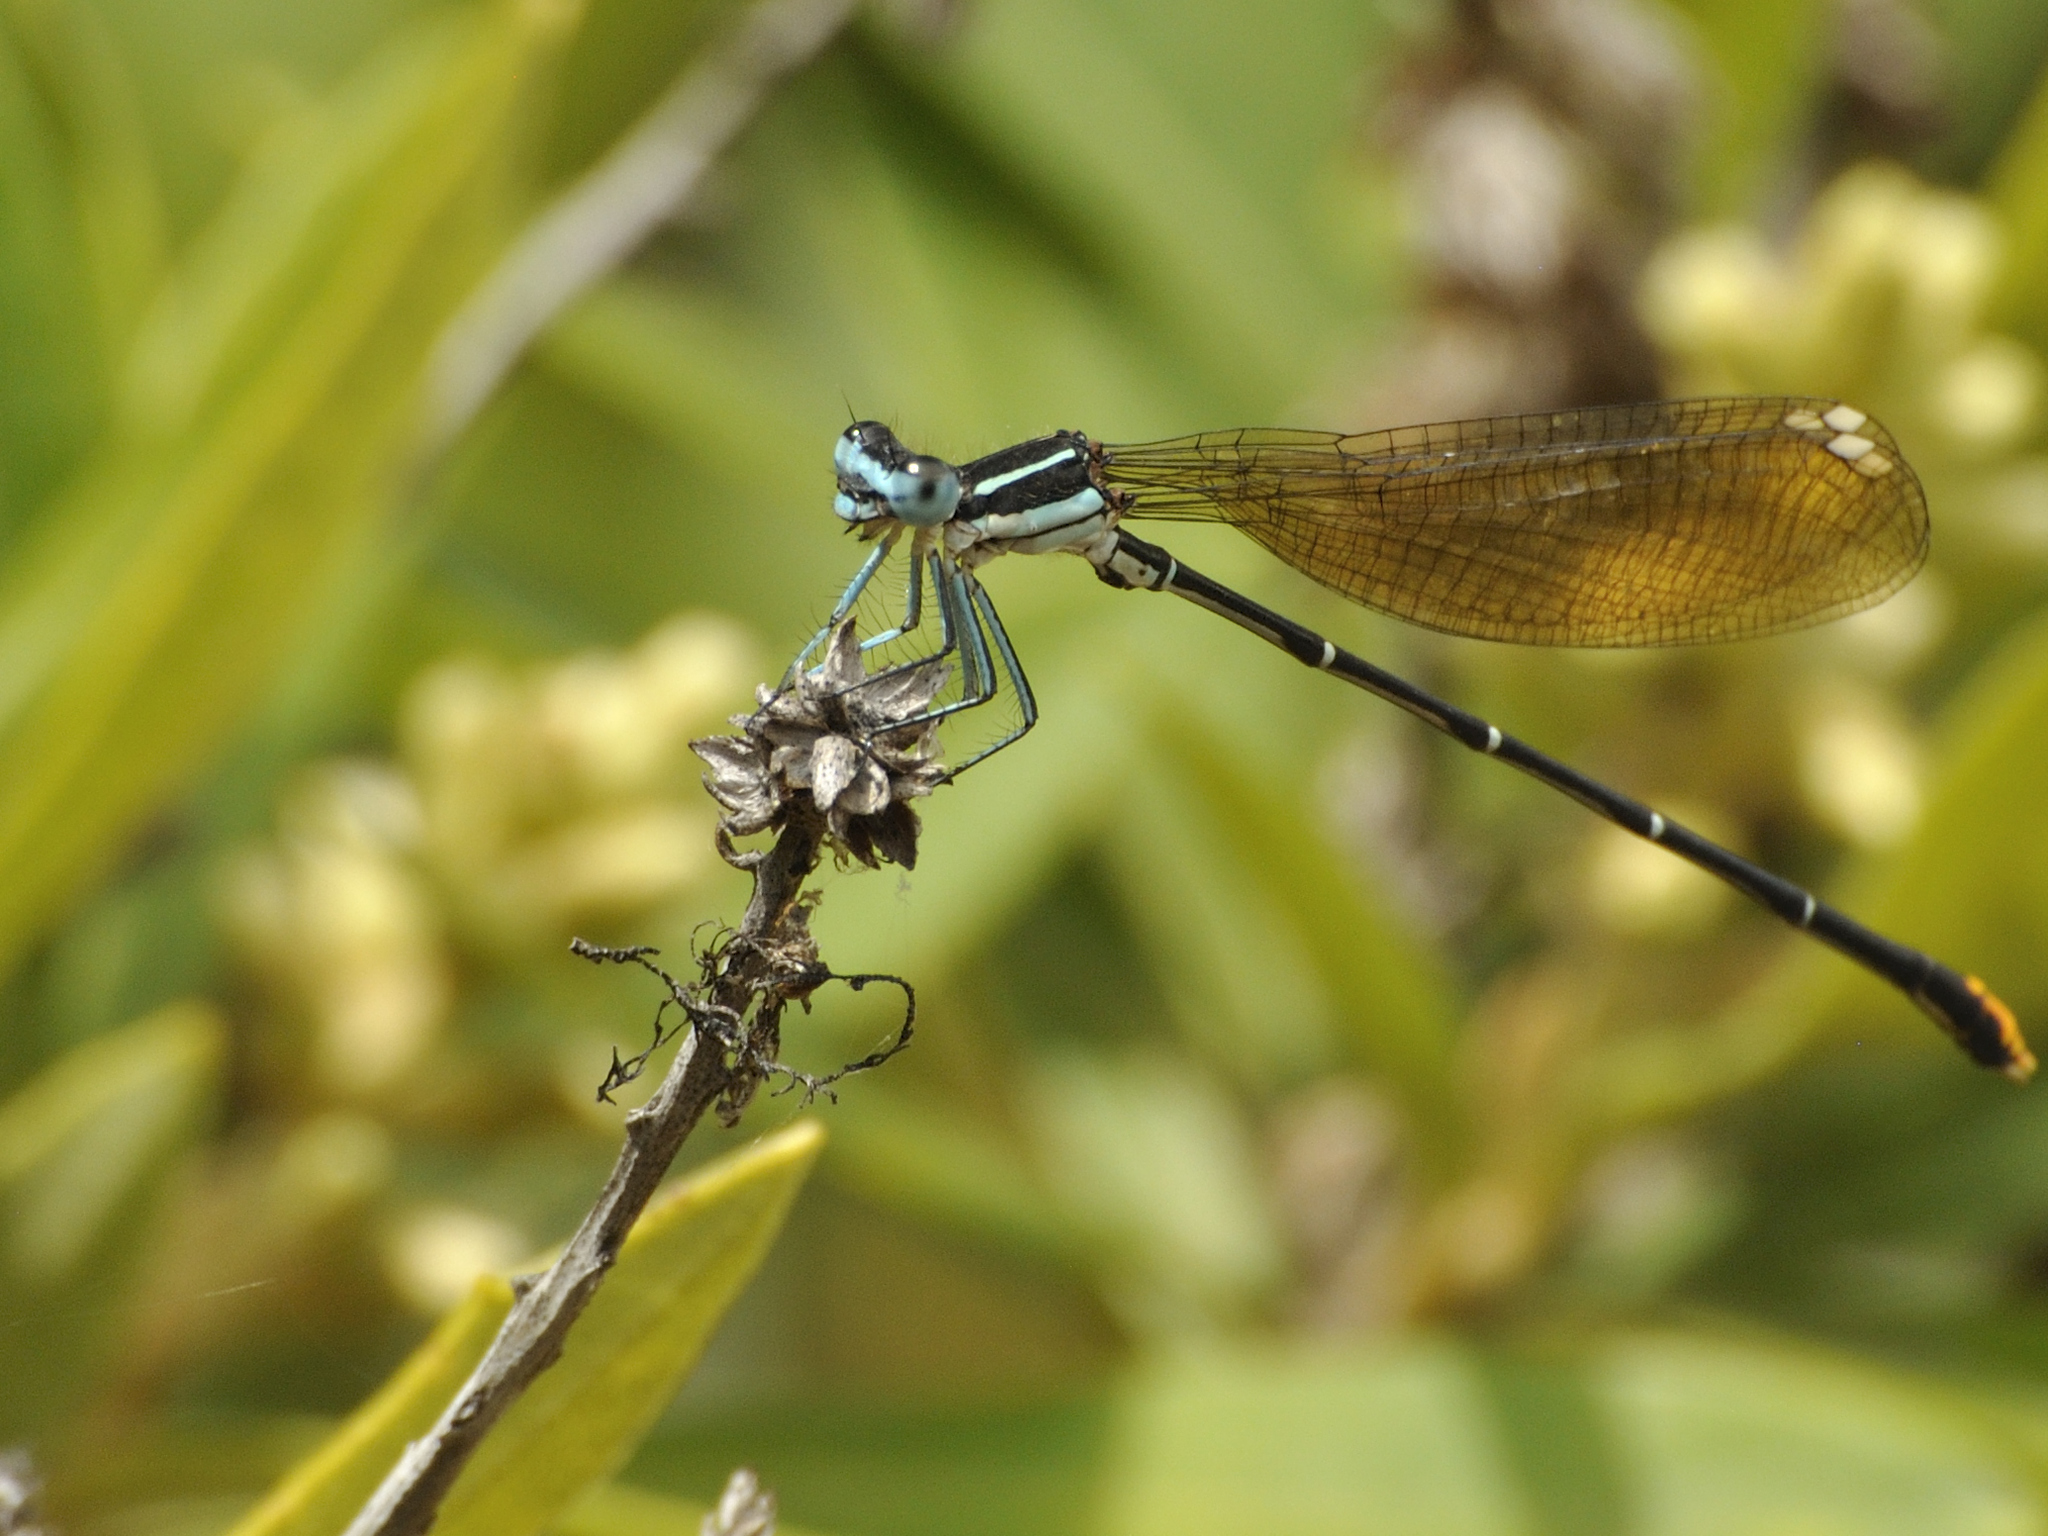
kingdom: Animalia
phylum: Arthropoda
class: Insecta
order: Odonata
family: Platycnemididae
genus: Allocnemis
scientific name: Allocnemis leucosticta
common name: Goldtail
